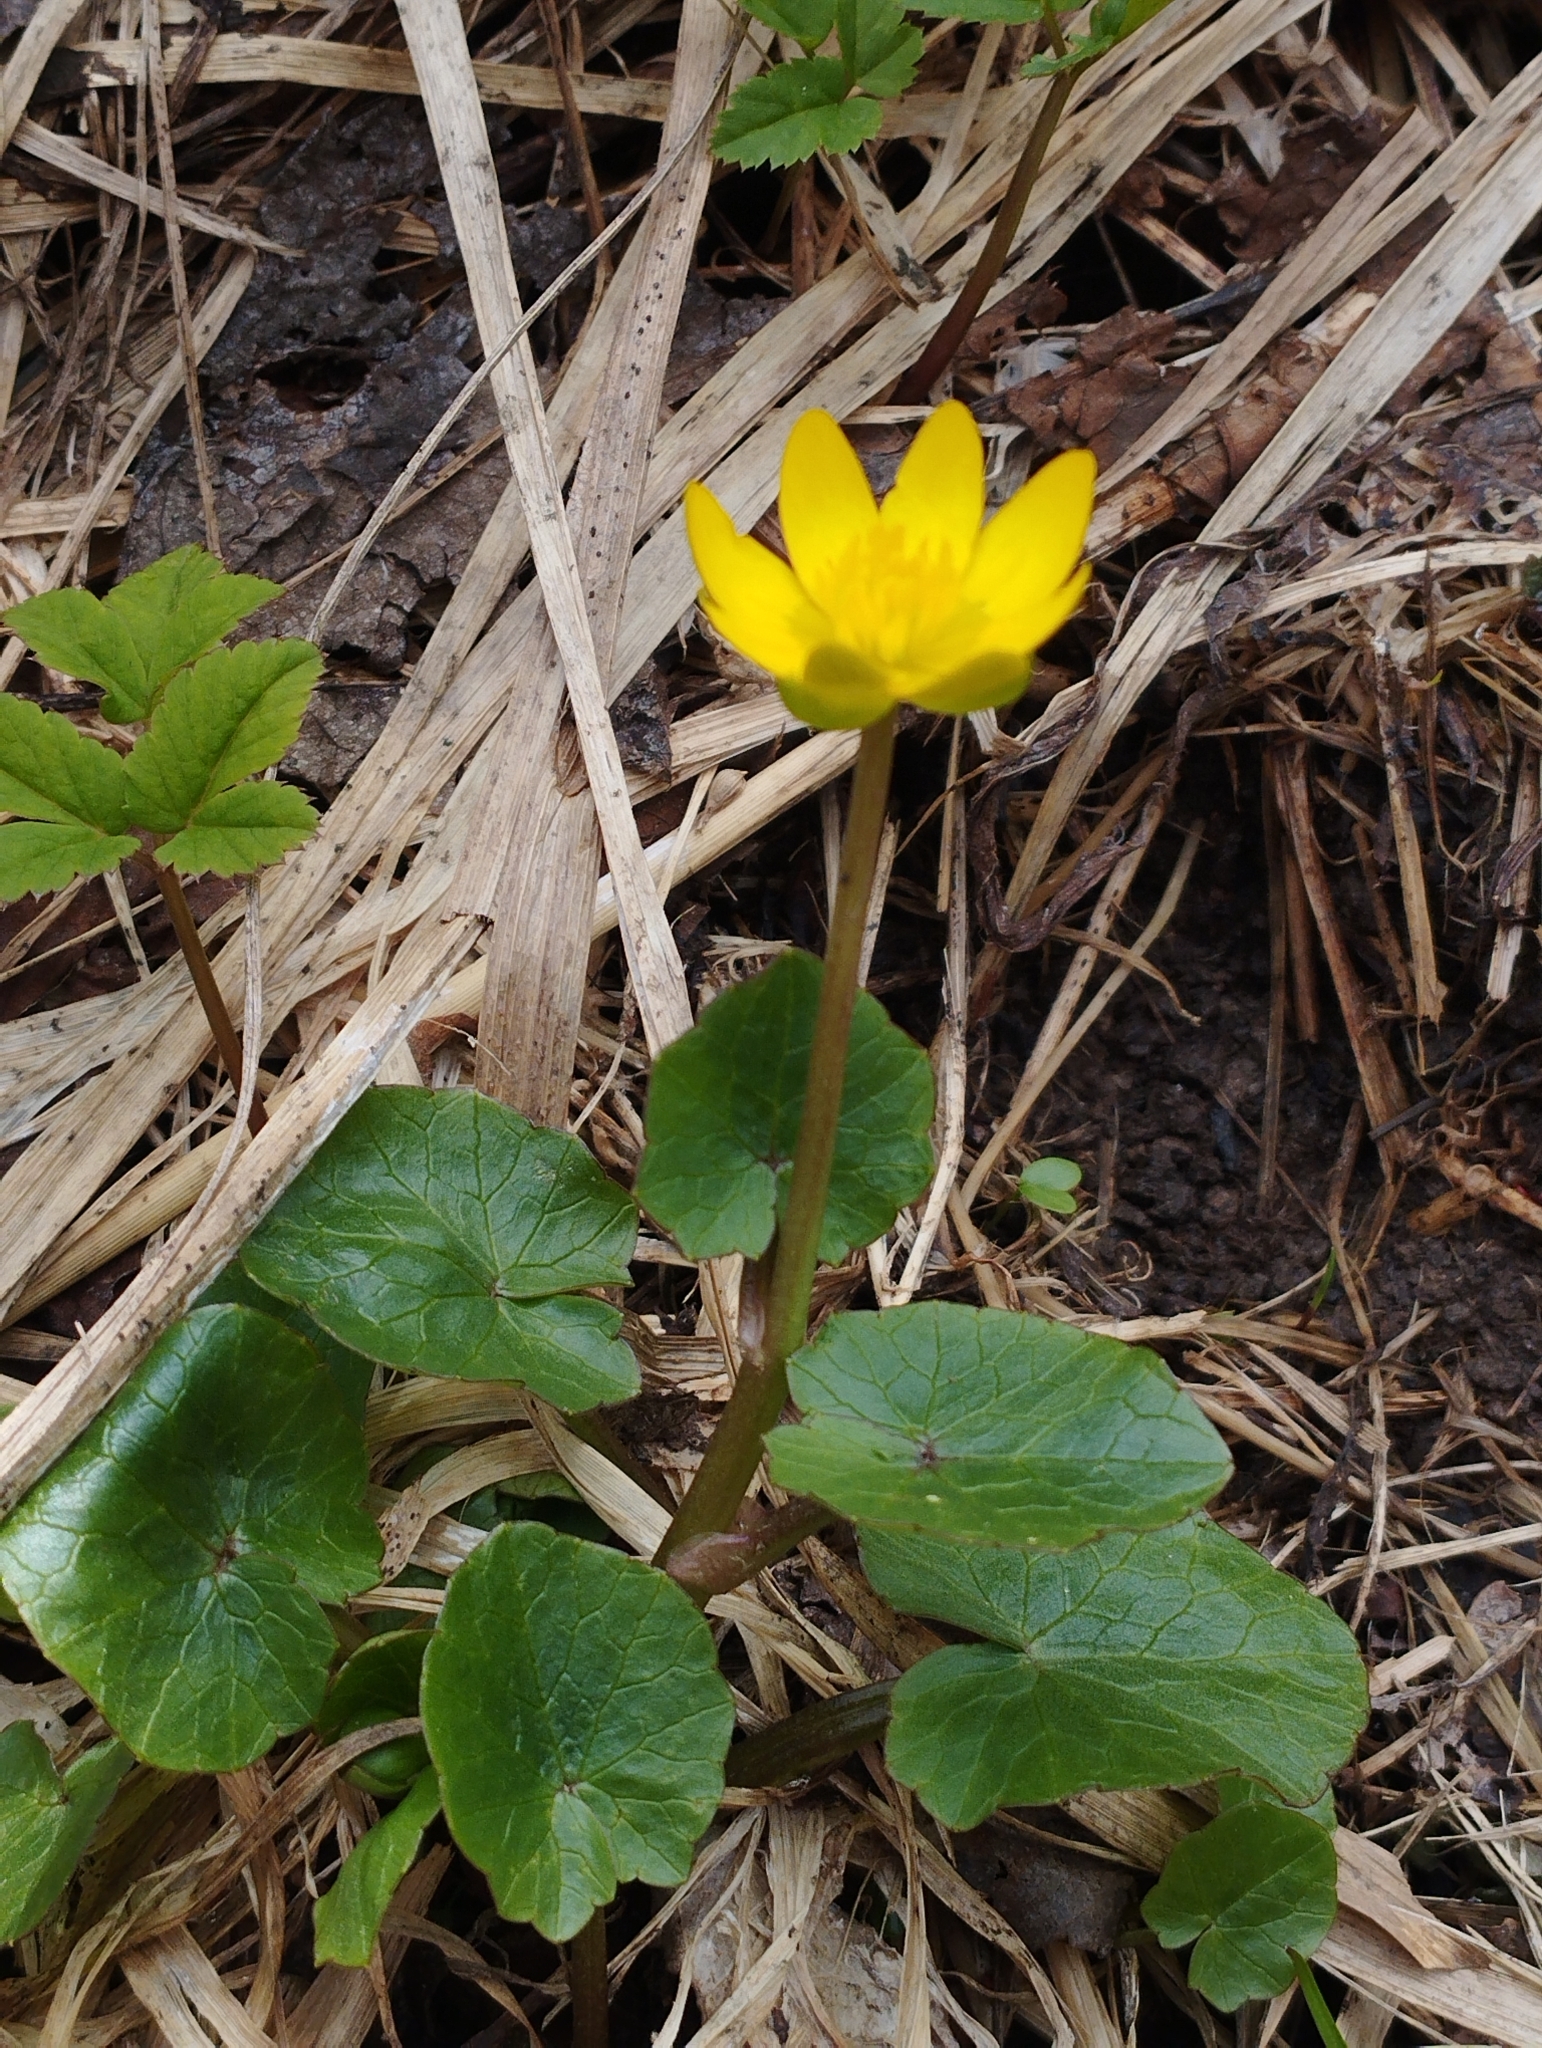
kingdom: Plantae
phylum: Tracheophyta
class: Magnoliopsida
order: Ranunculales
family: Ranunculaceae
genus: Ficaria
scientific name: Ficaria verna
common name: Lesser celandine
